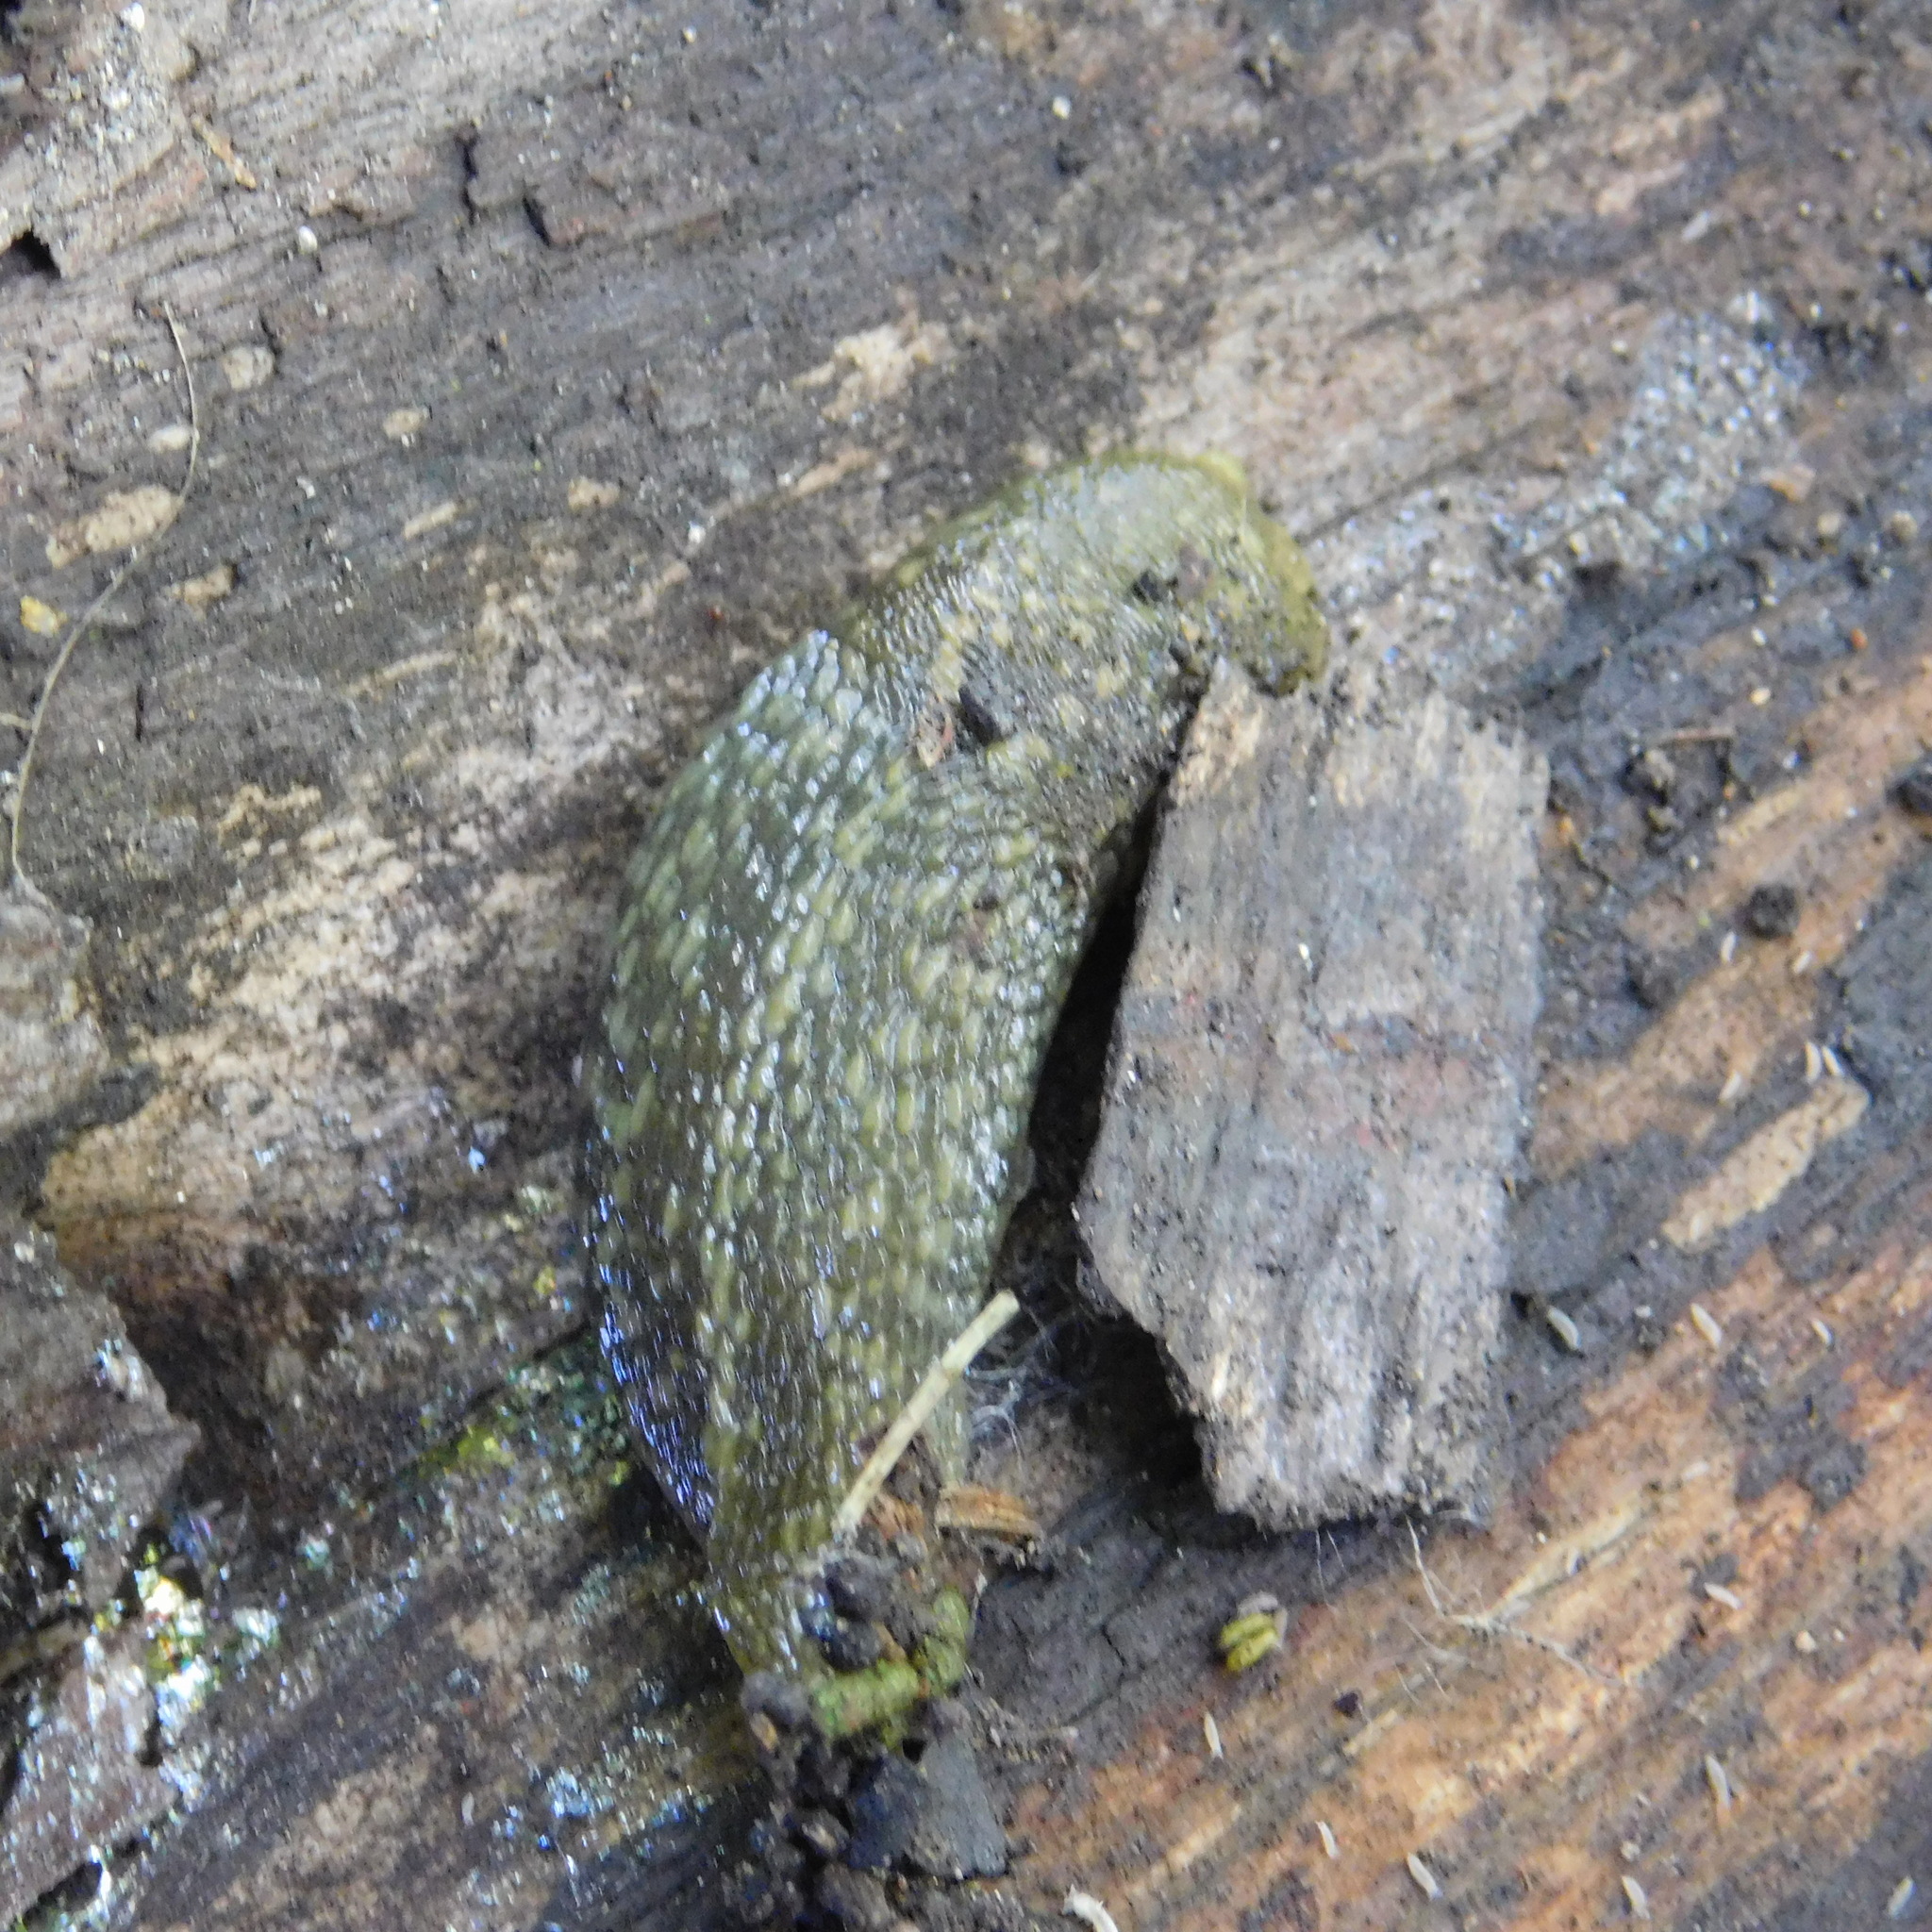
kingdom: Animalia
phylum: Mollusca
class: Gastropoda
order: Stylommatophora
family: Limacidae
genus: Limacus
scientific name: Limacus flavus
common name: Yellow gardenslug
